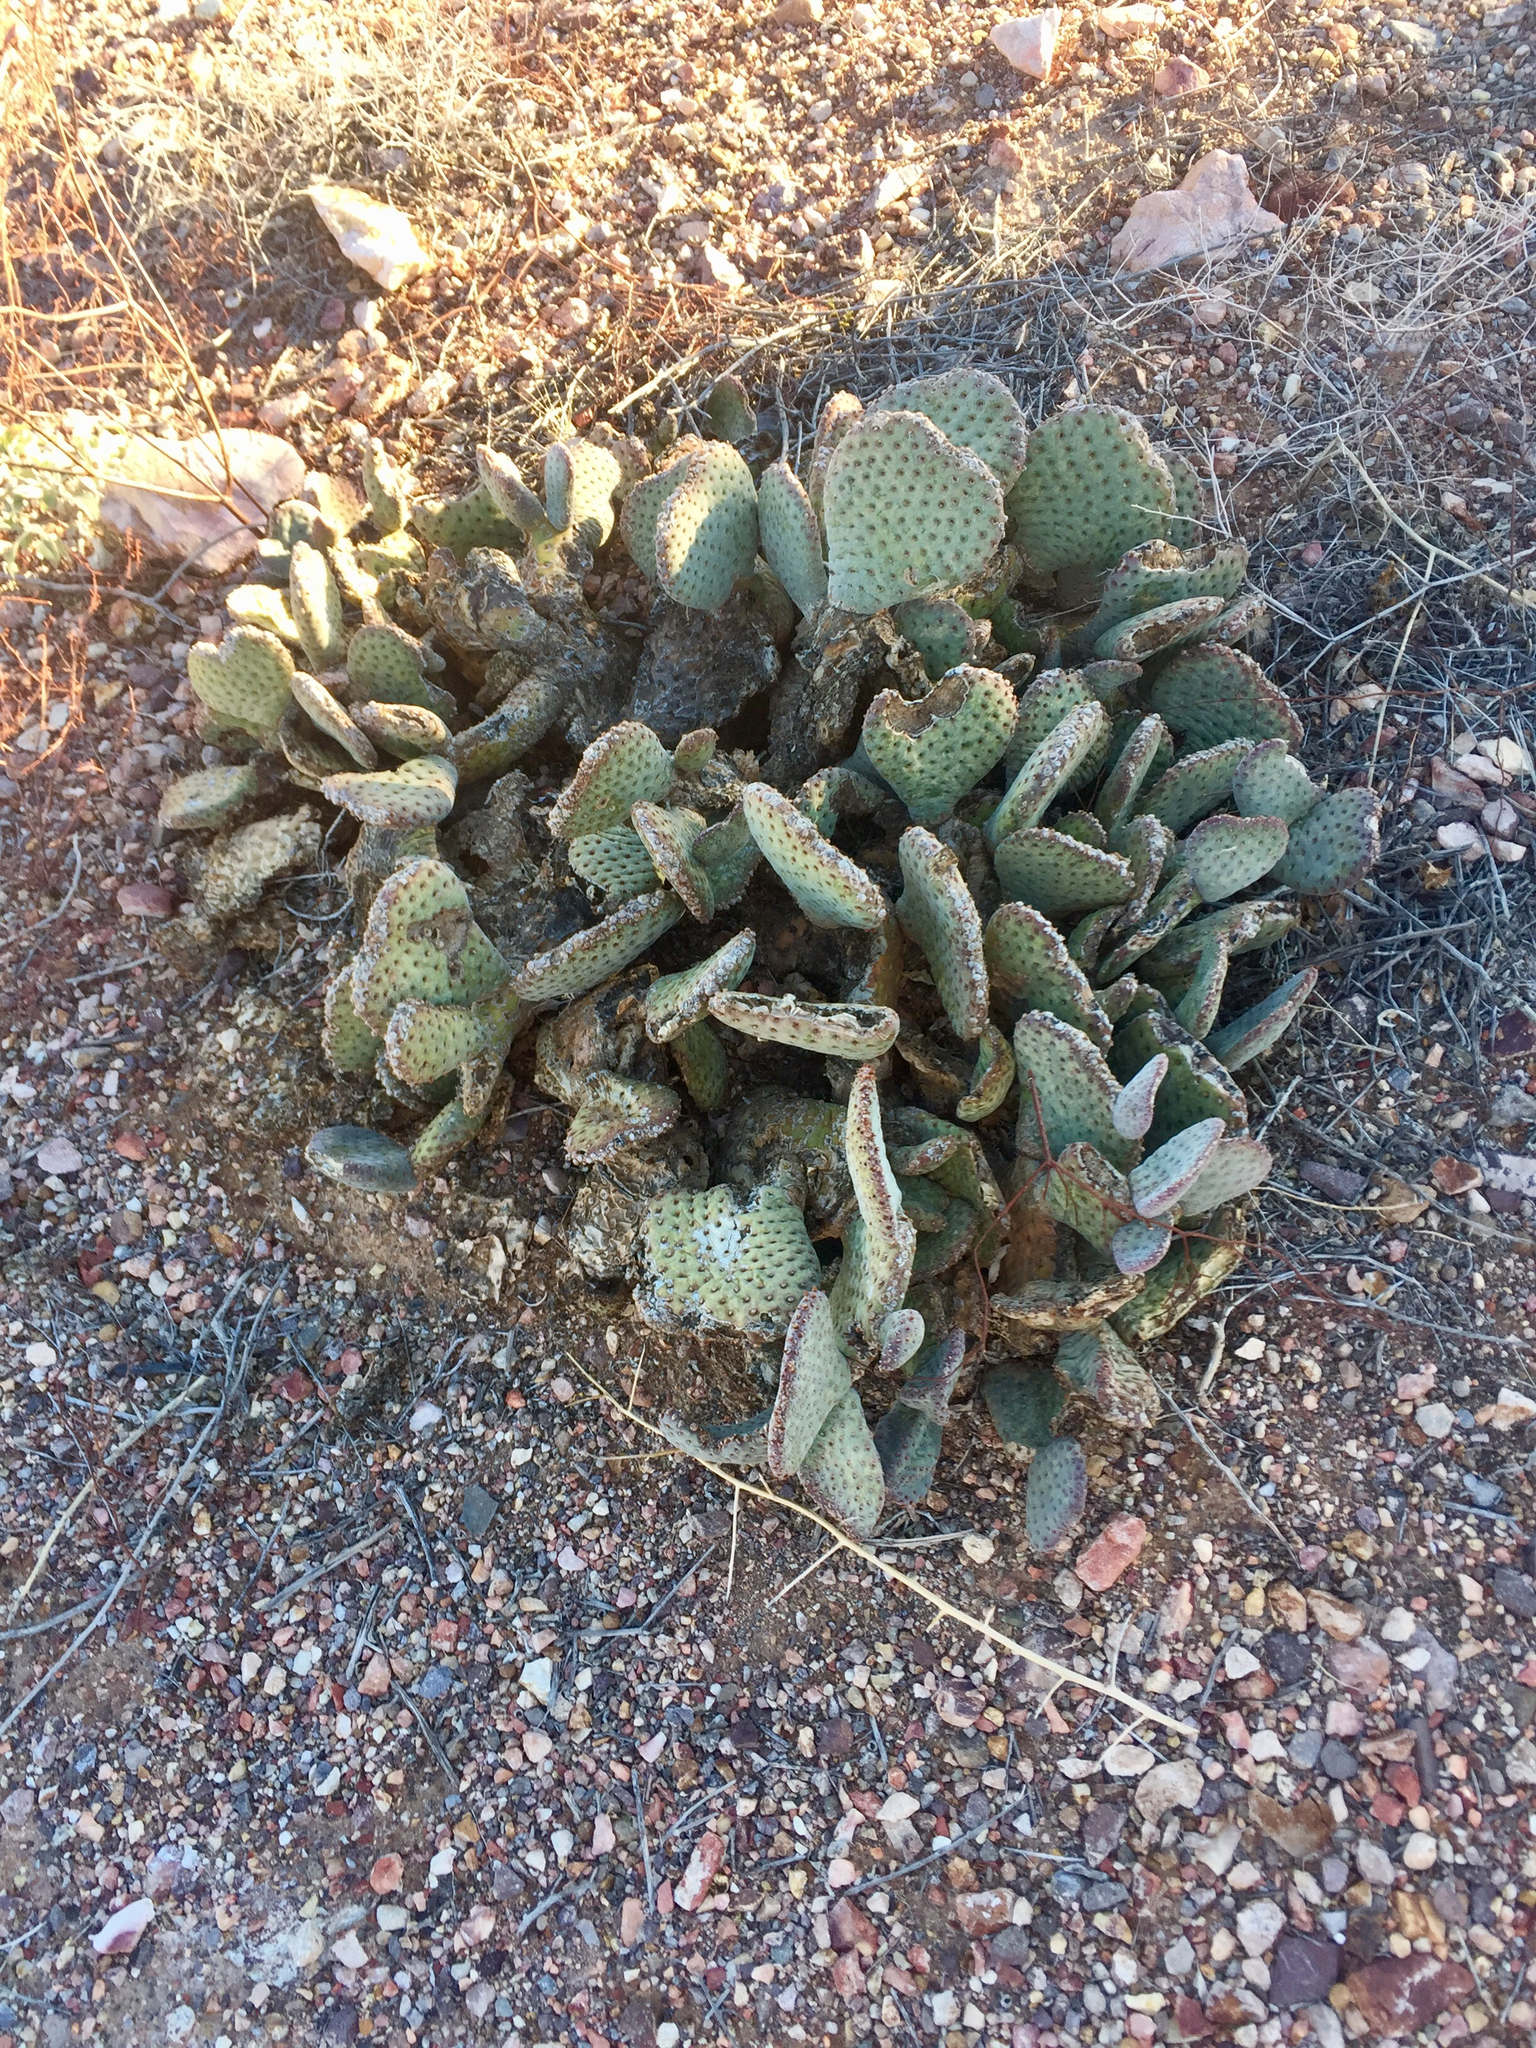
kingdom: Plantae
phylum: Tracheophyta
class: Magnoliopsida
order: Caryophyllales
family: Cactaceae
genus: Opuntia
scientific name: Opuntia basilaris
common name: Beavertail prickly-pear
